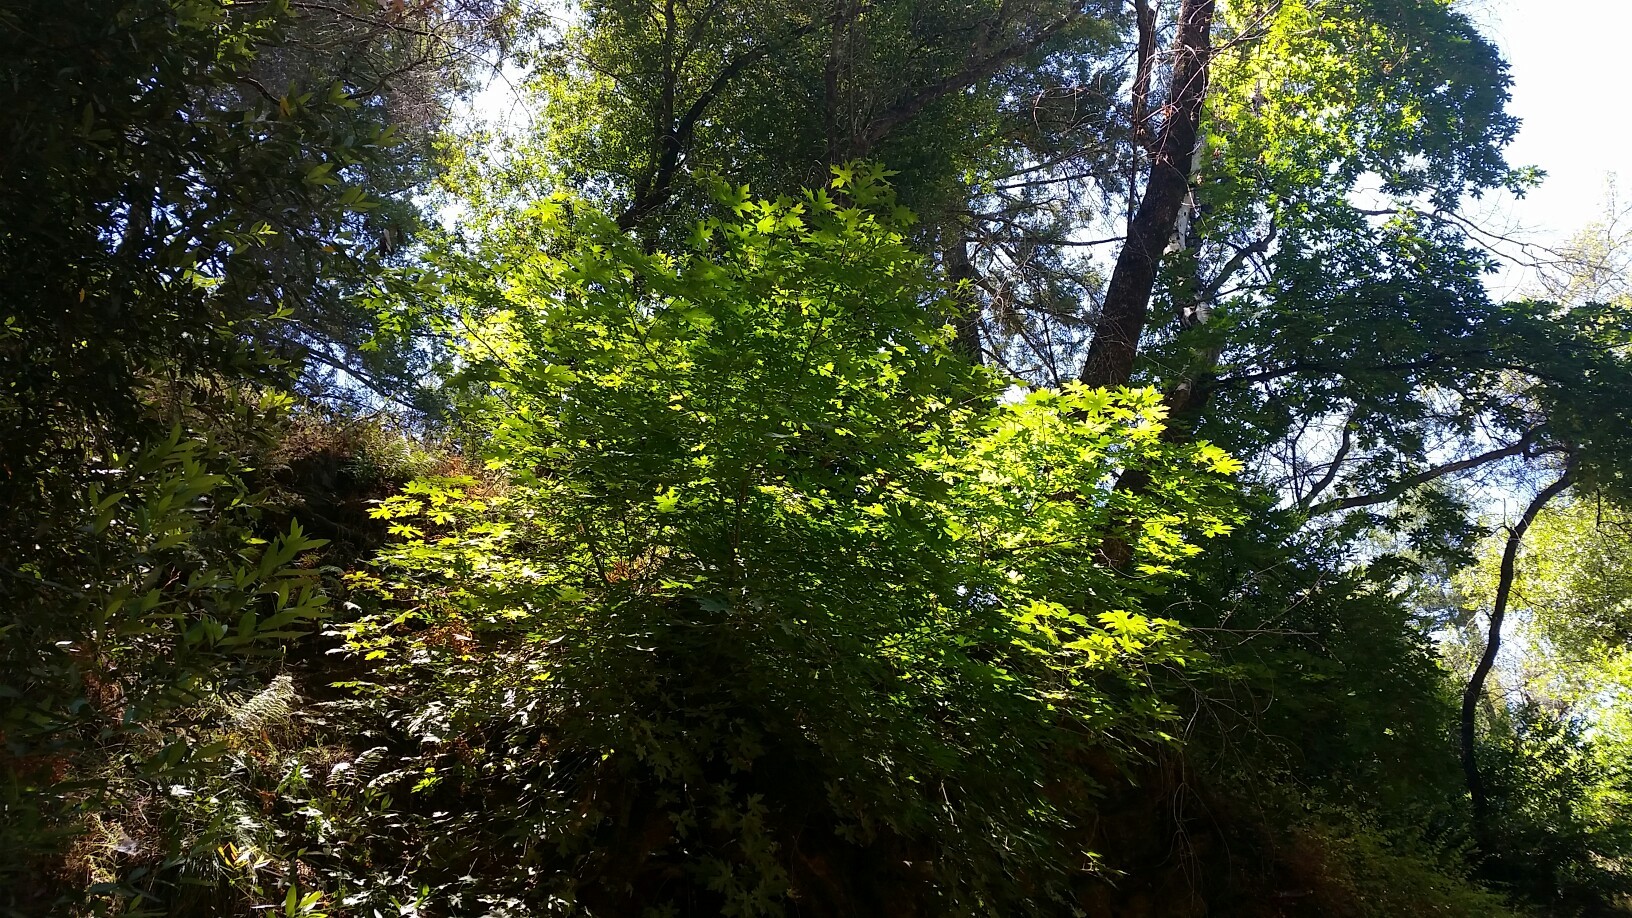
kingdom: Plantae
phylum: Tracheophyta
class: Magnoliopsida
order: Sapindales
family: Sapindaceae
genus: Acer
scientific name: Acer macrophyllum
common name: Oregon maple
